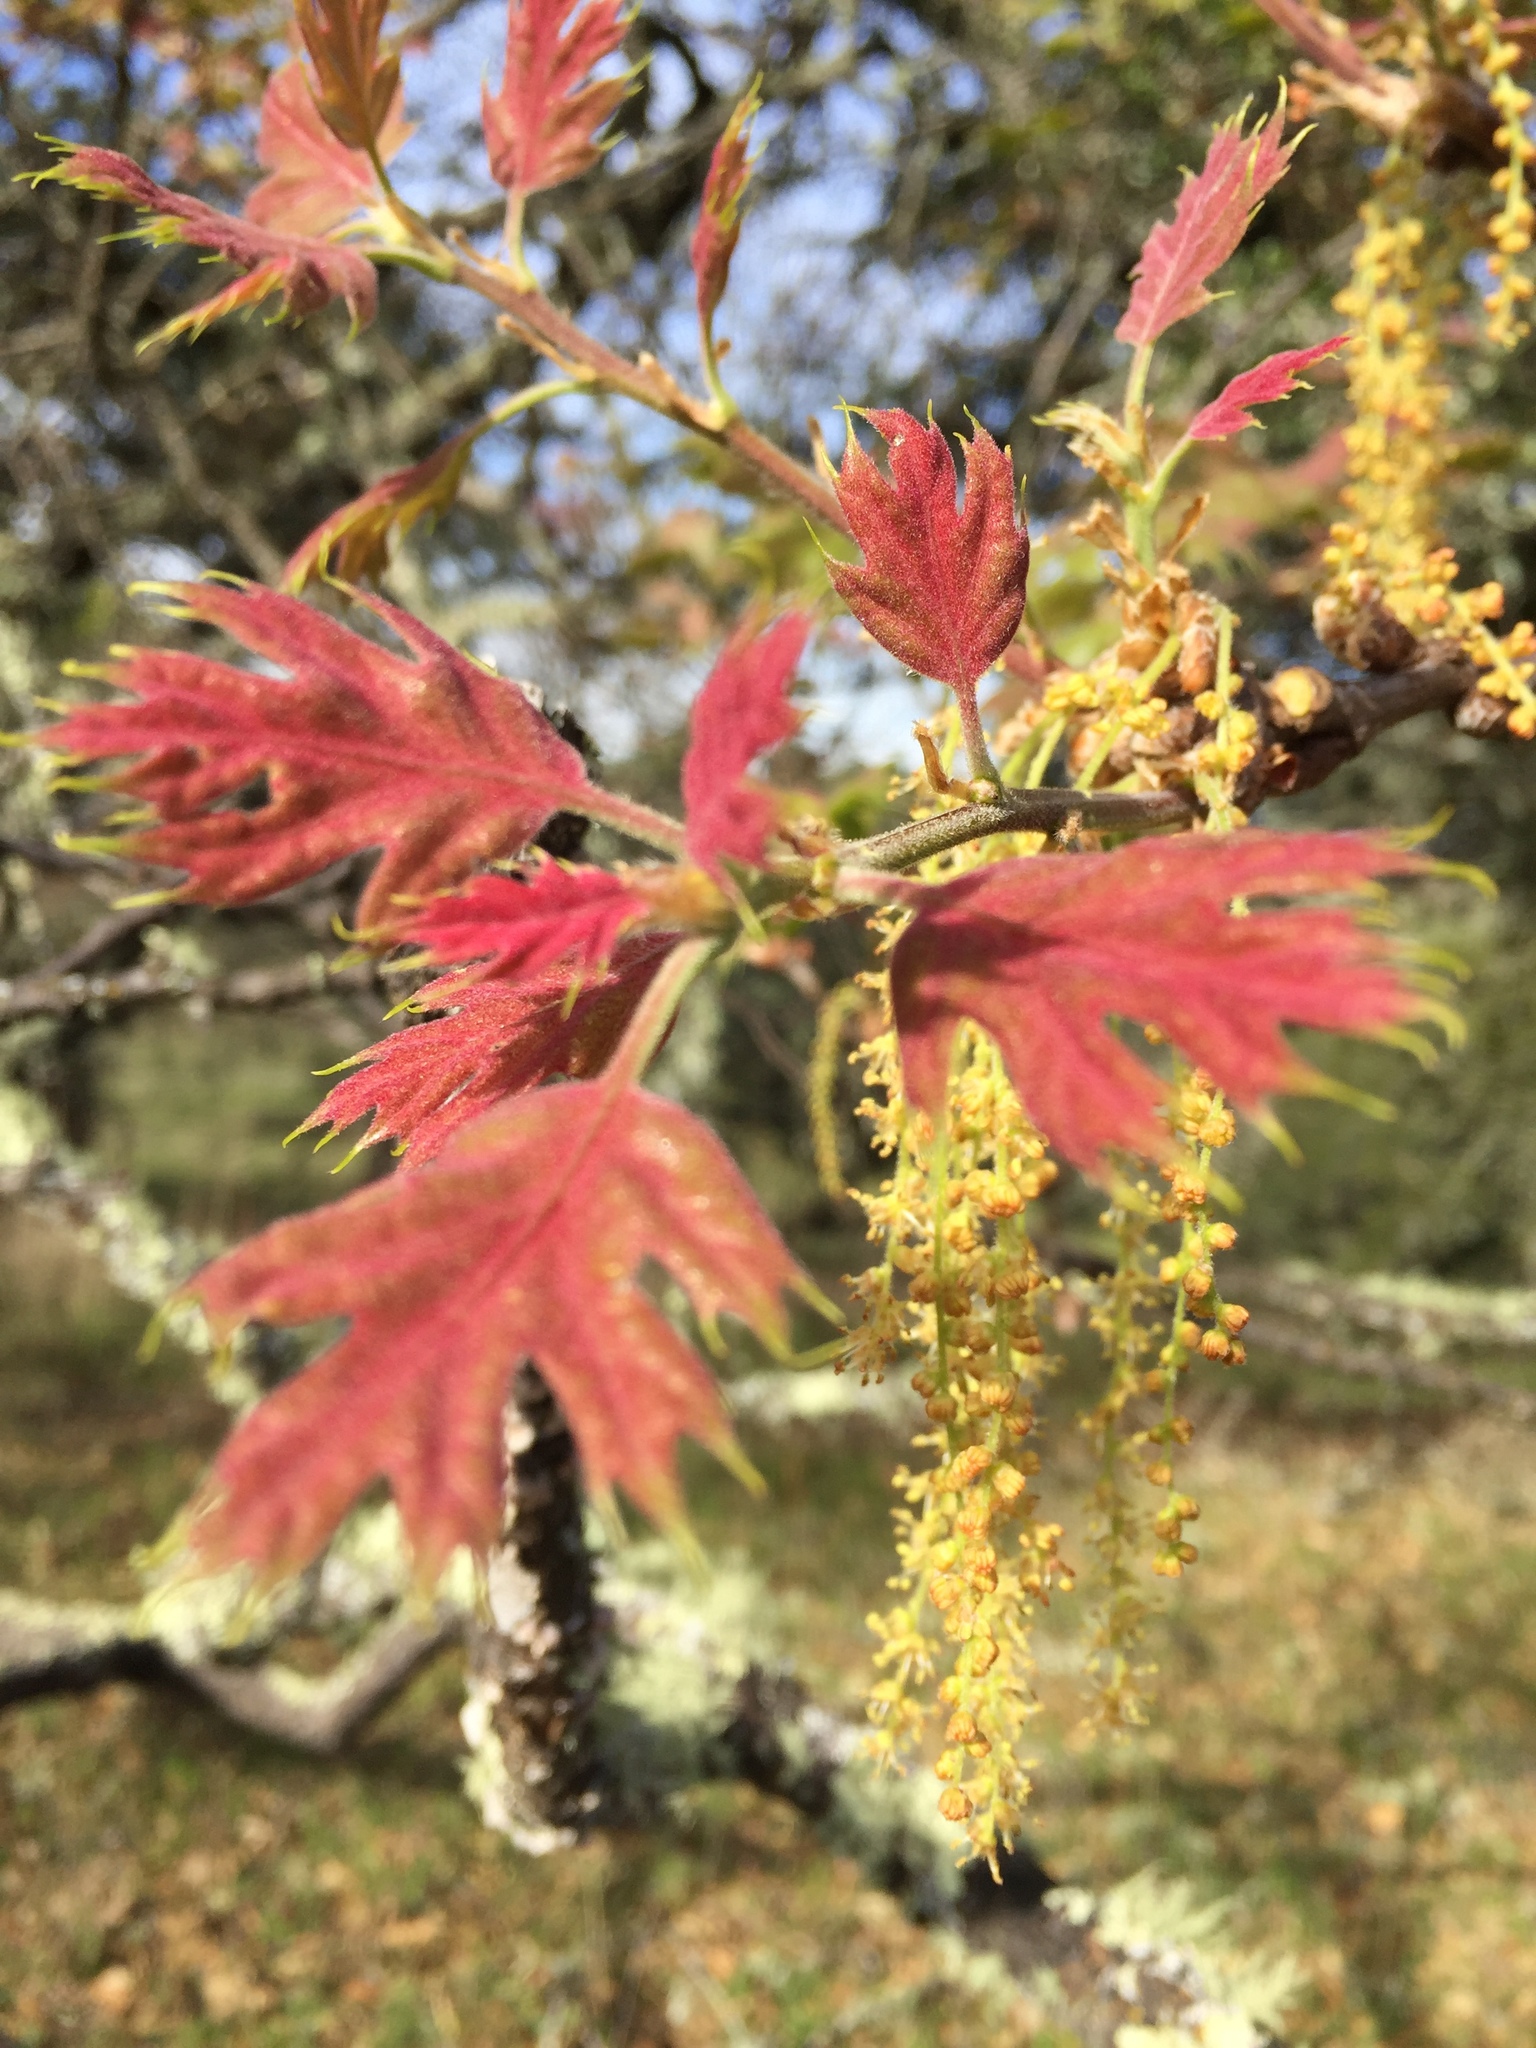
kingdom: Plantae
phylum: Tracheophyta
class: Magnoliopsida
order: Fagales
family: Fagaceae
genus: Quercus
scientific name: Quercus kelloggii
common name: California black oak
